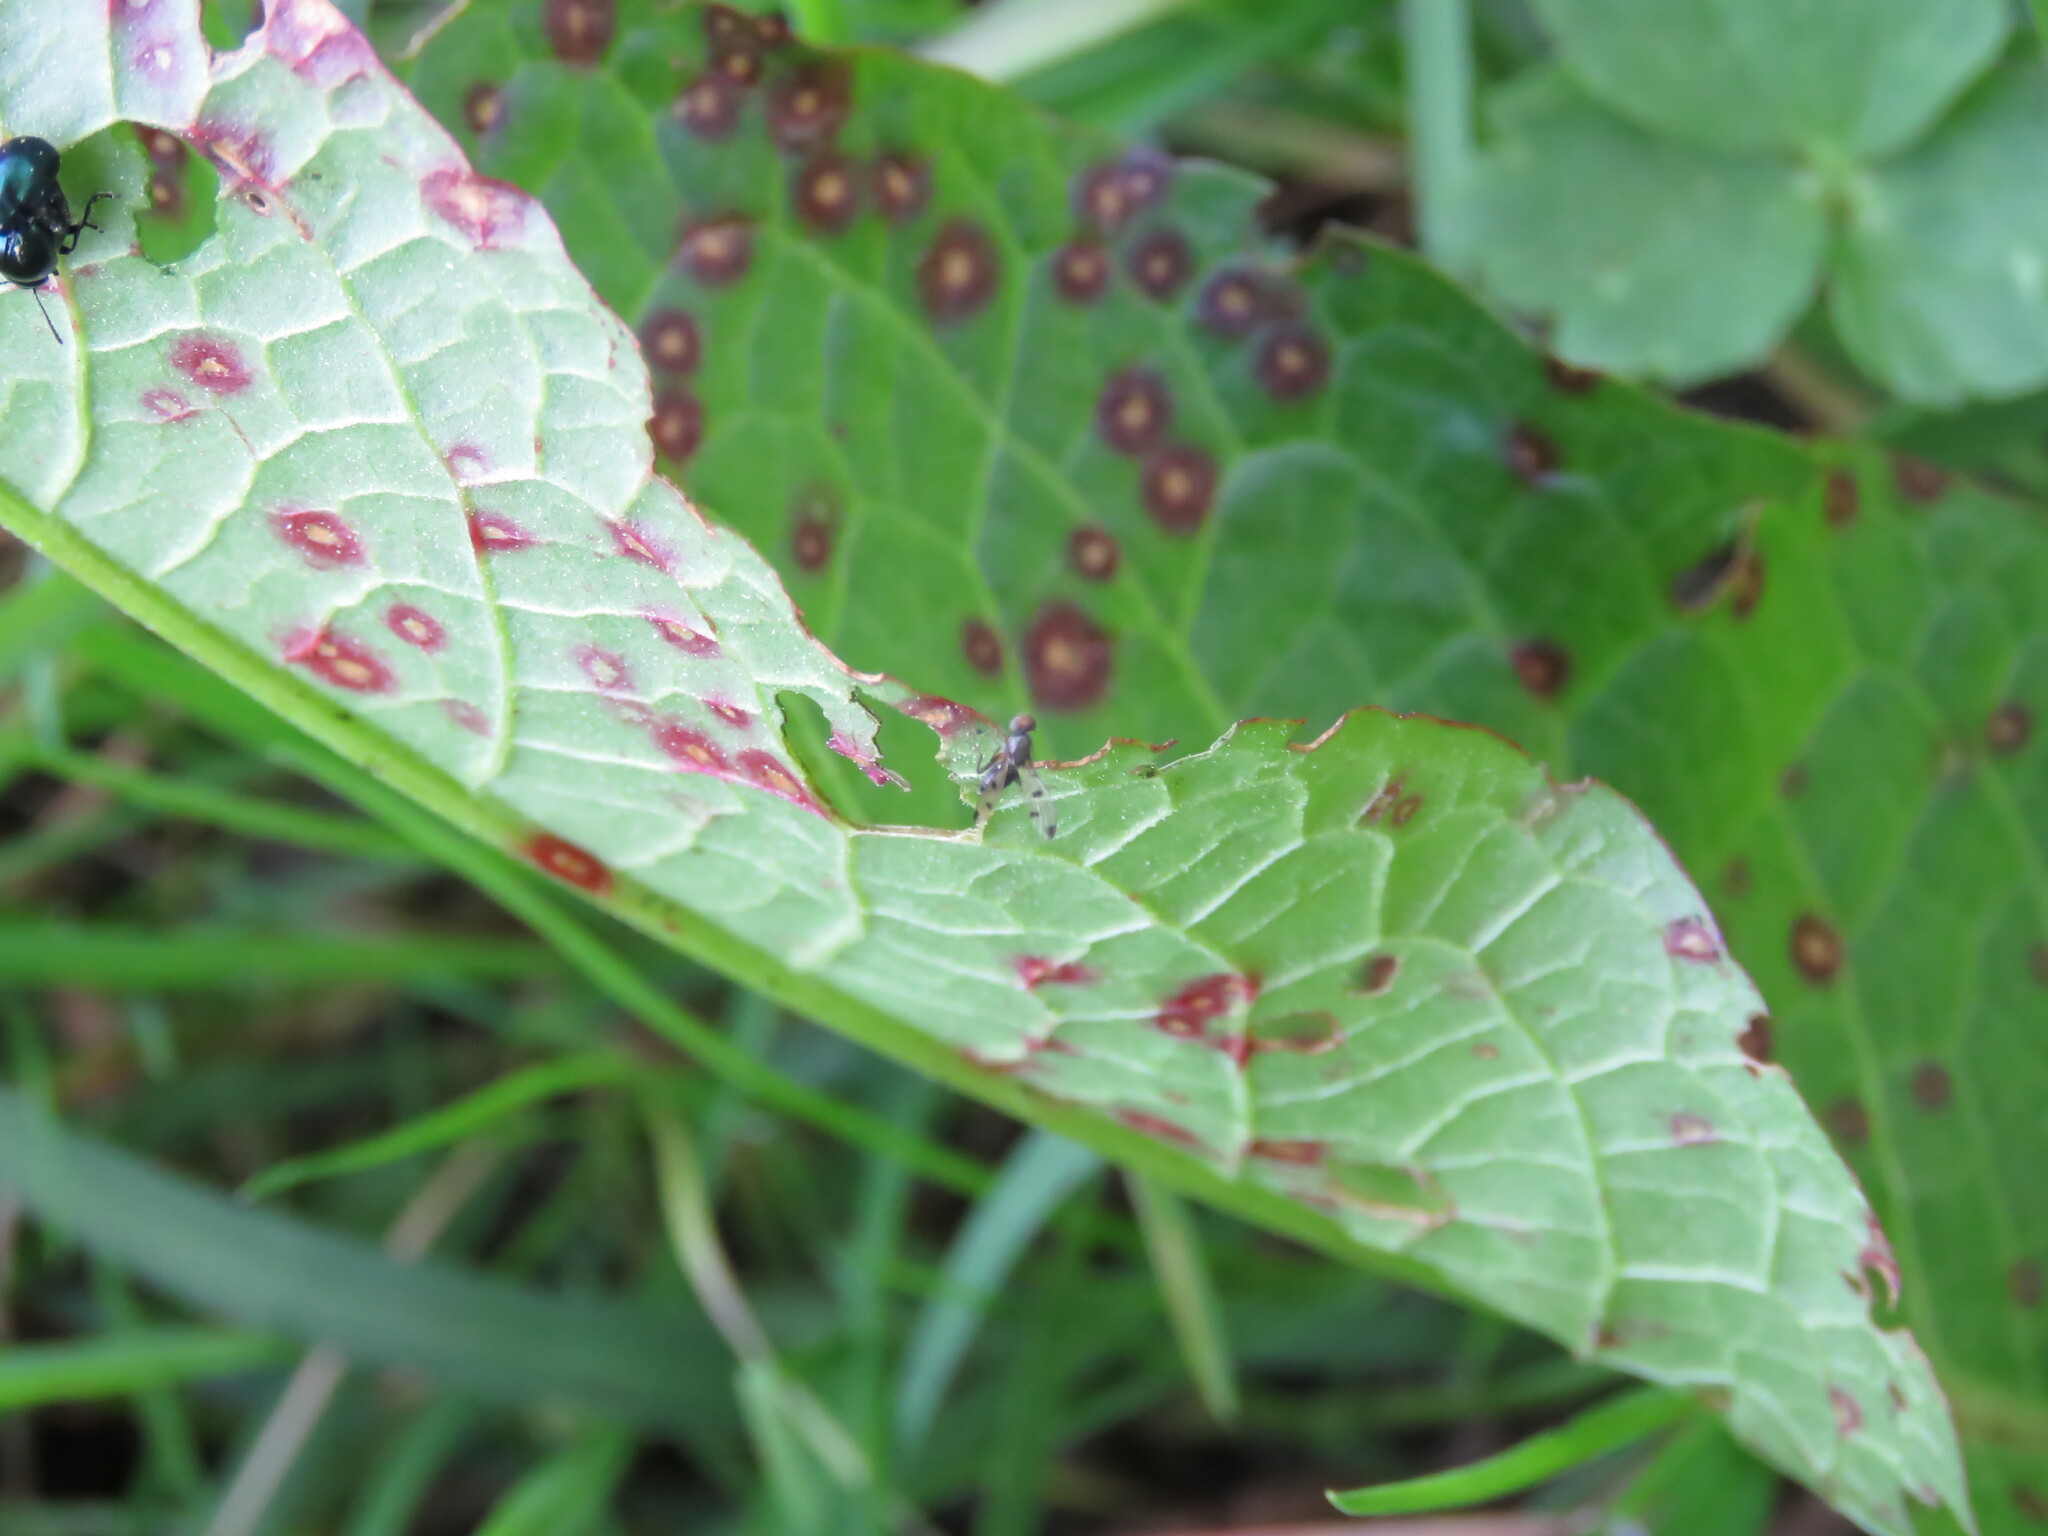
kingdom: Fungi
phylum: Ascomycota
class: Dothideomycetes
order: Mycosphaerellales
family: Mycosphaerellaceae
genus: Ramularia
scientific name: Ramularia rubella
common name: Red dock spot
